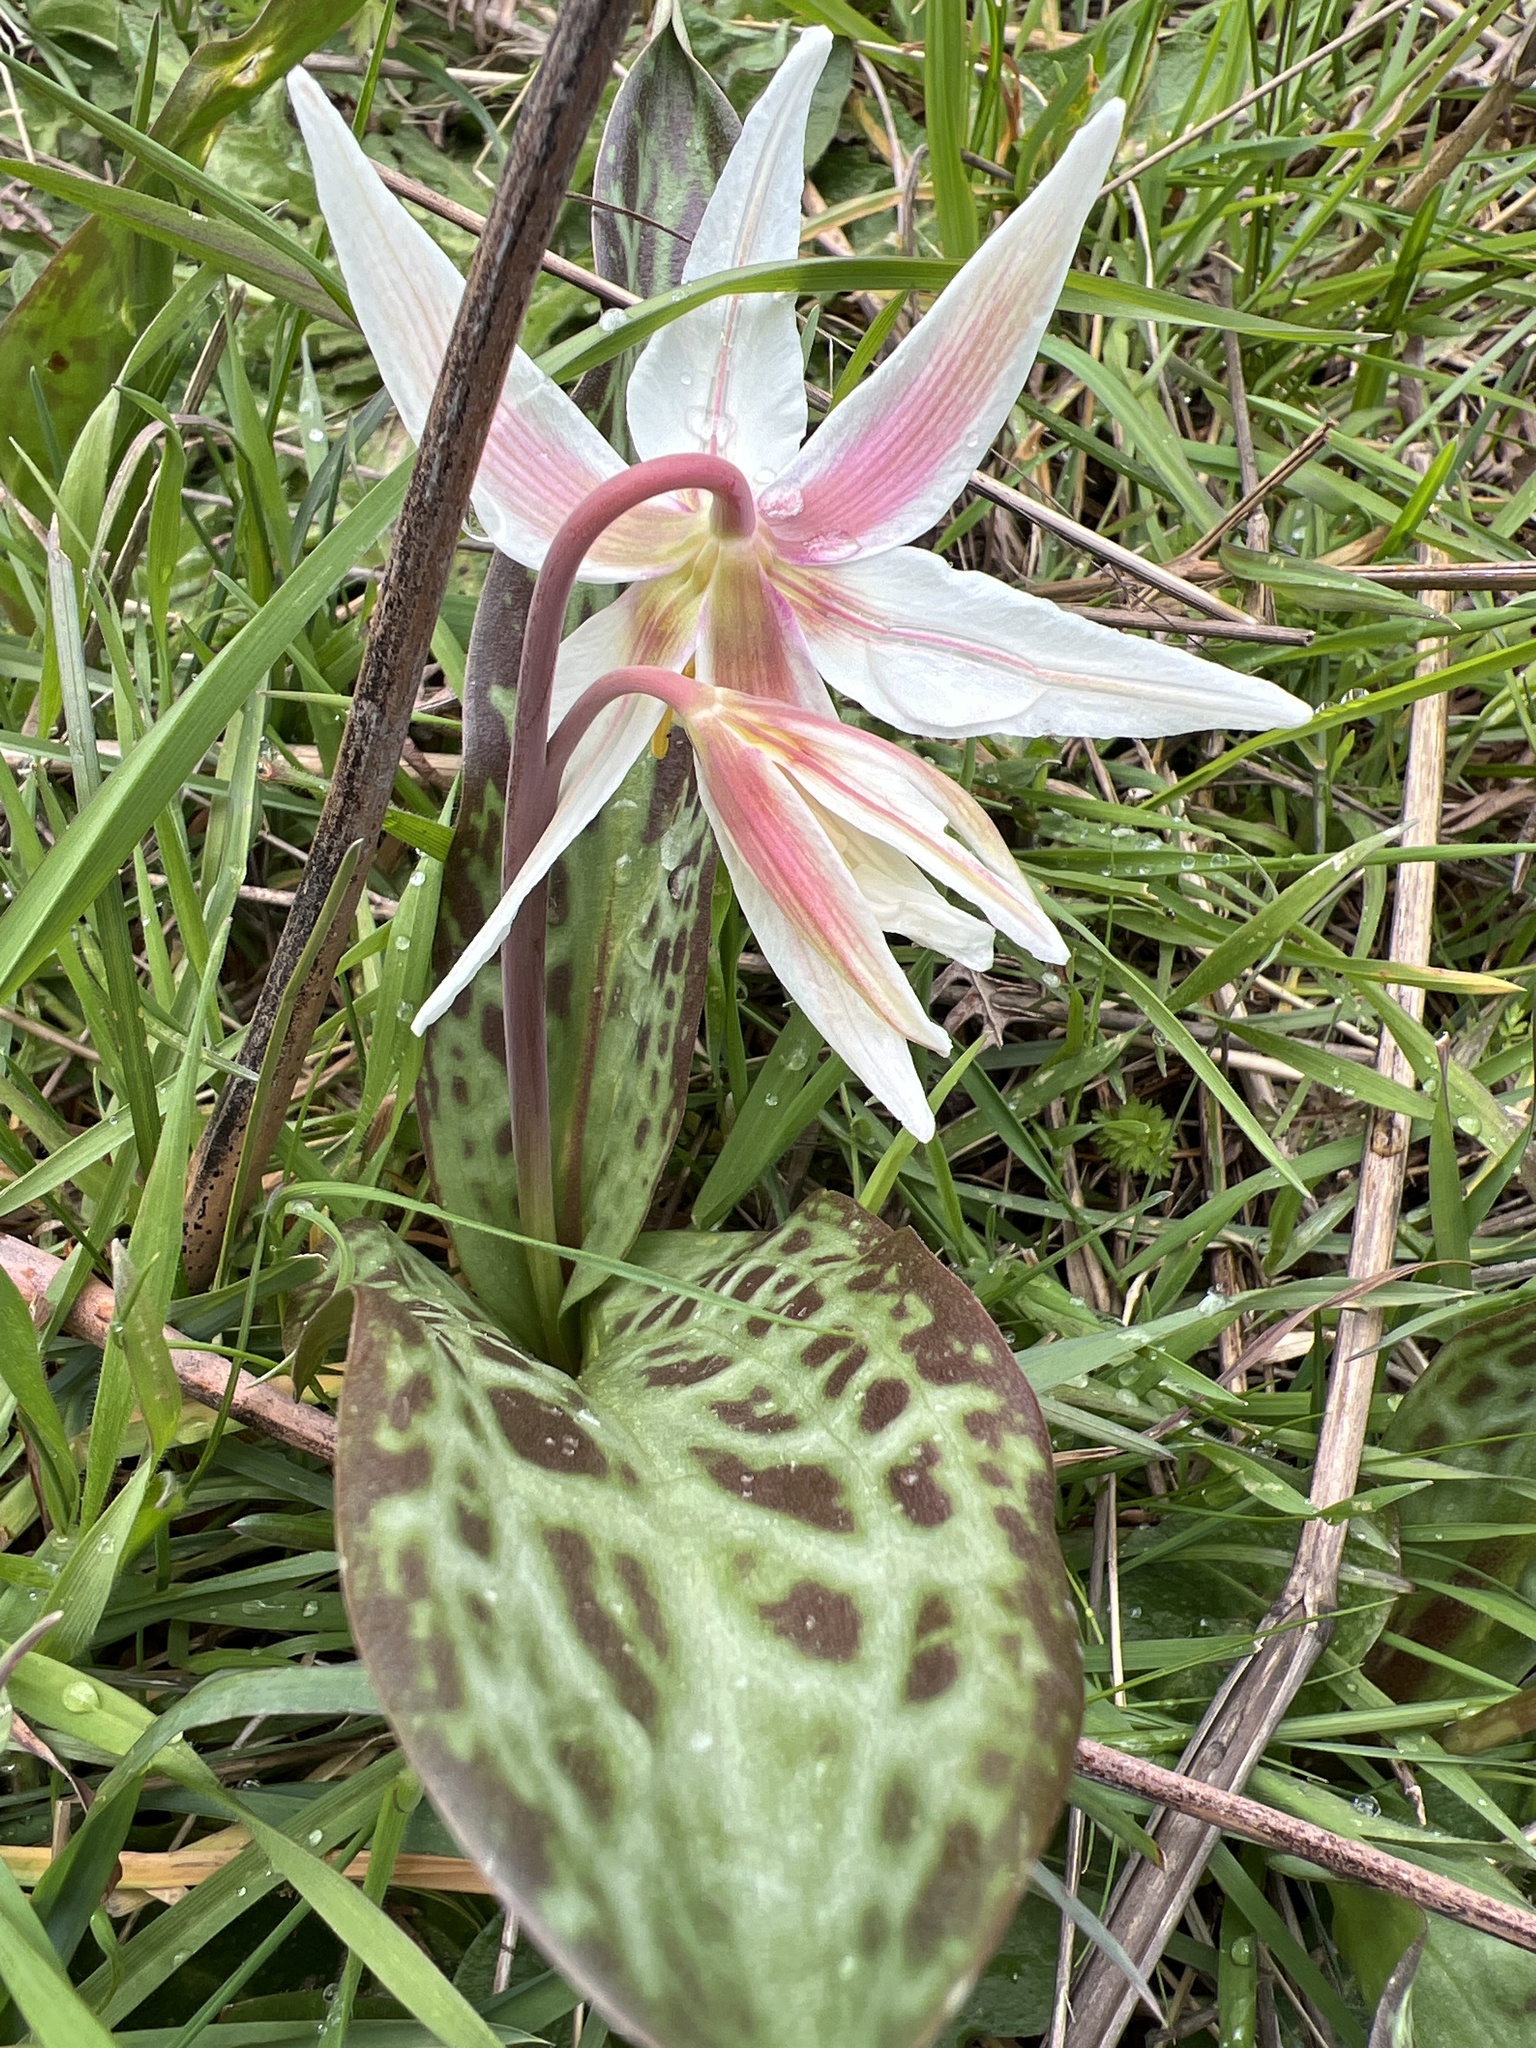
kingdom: Plantae
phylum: Tracheophyta
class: Liliopsida
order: Liliales
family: Liliaceae
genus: Erythronium
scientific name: Erythronium oregonum
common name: Giant adder's-tongue
